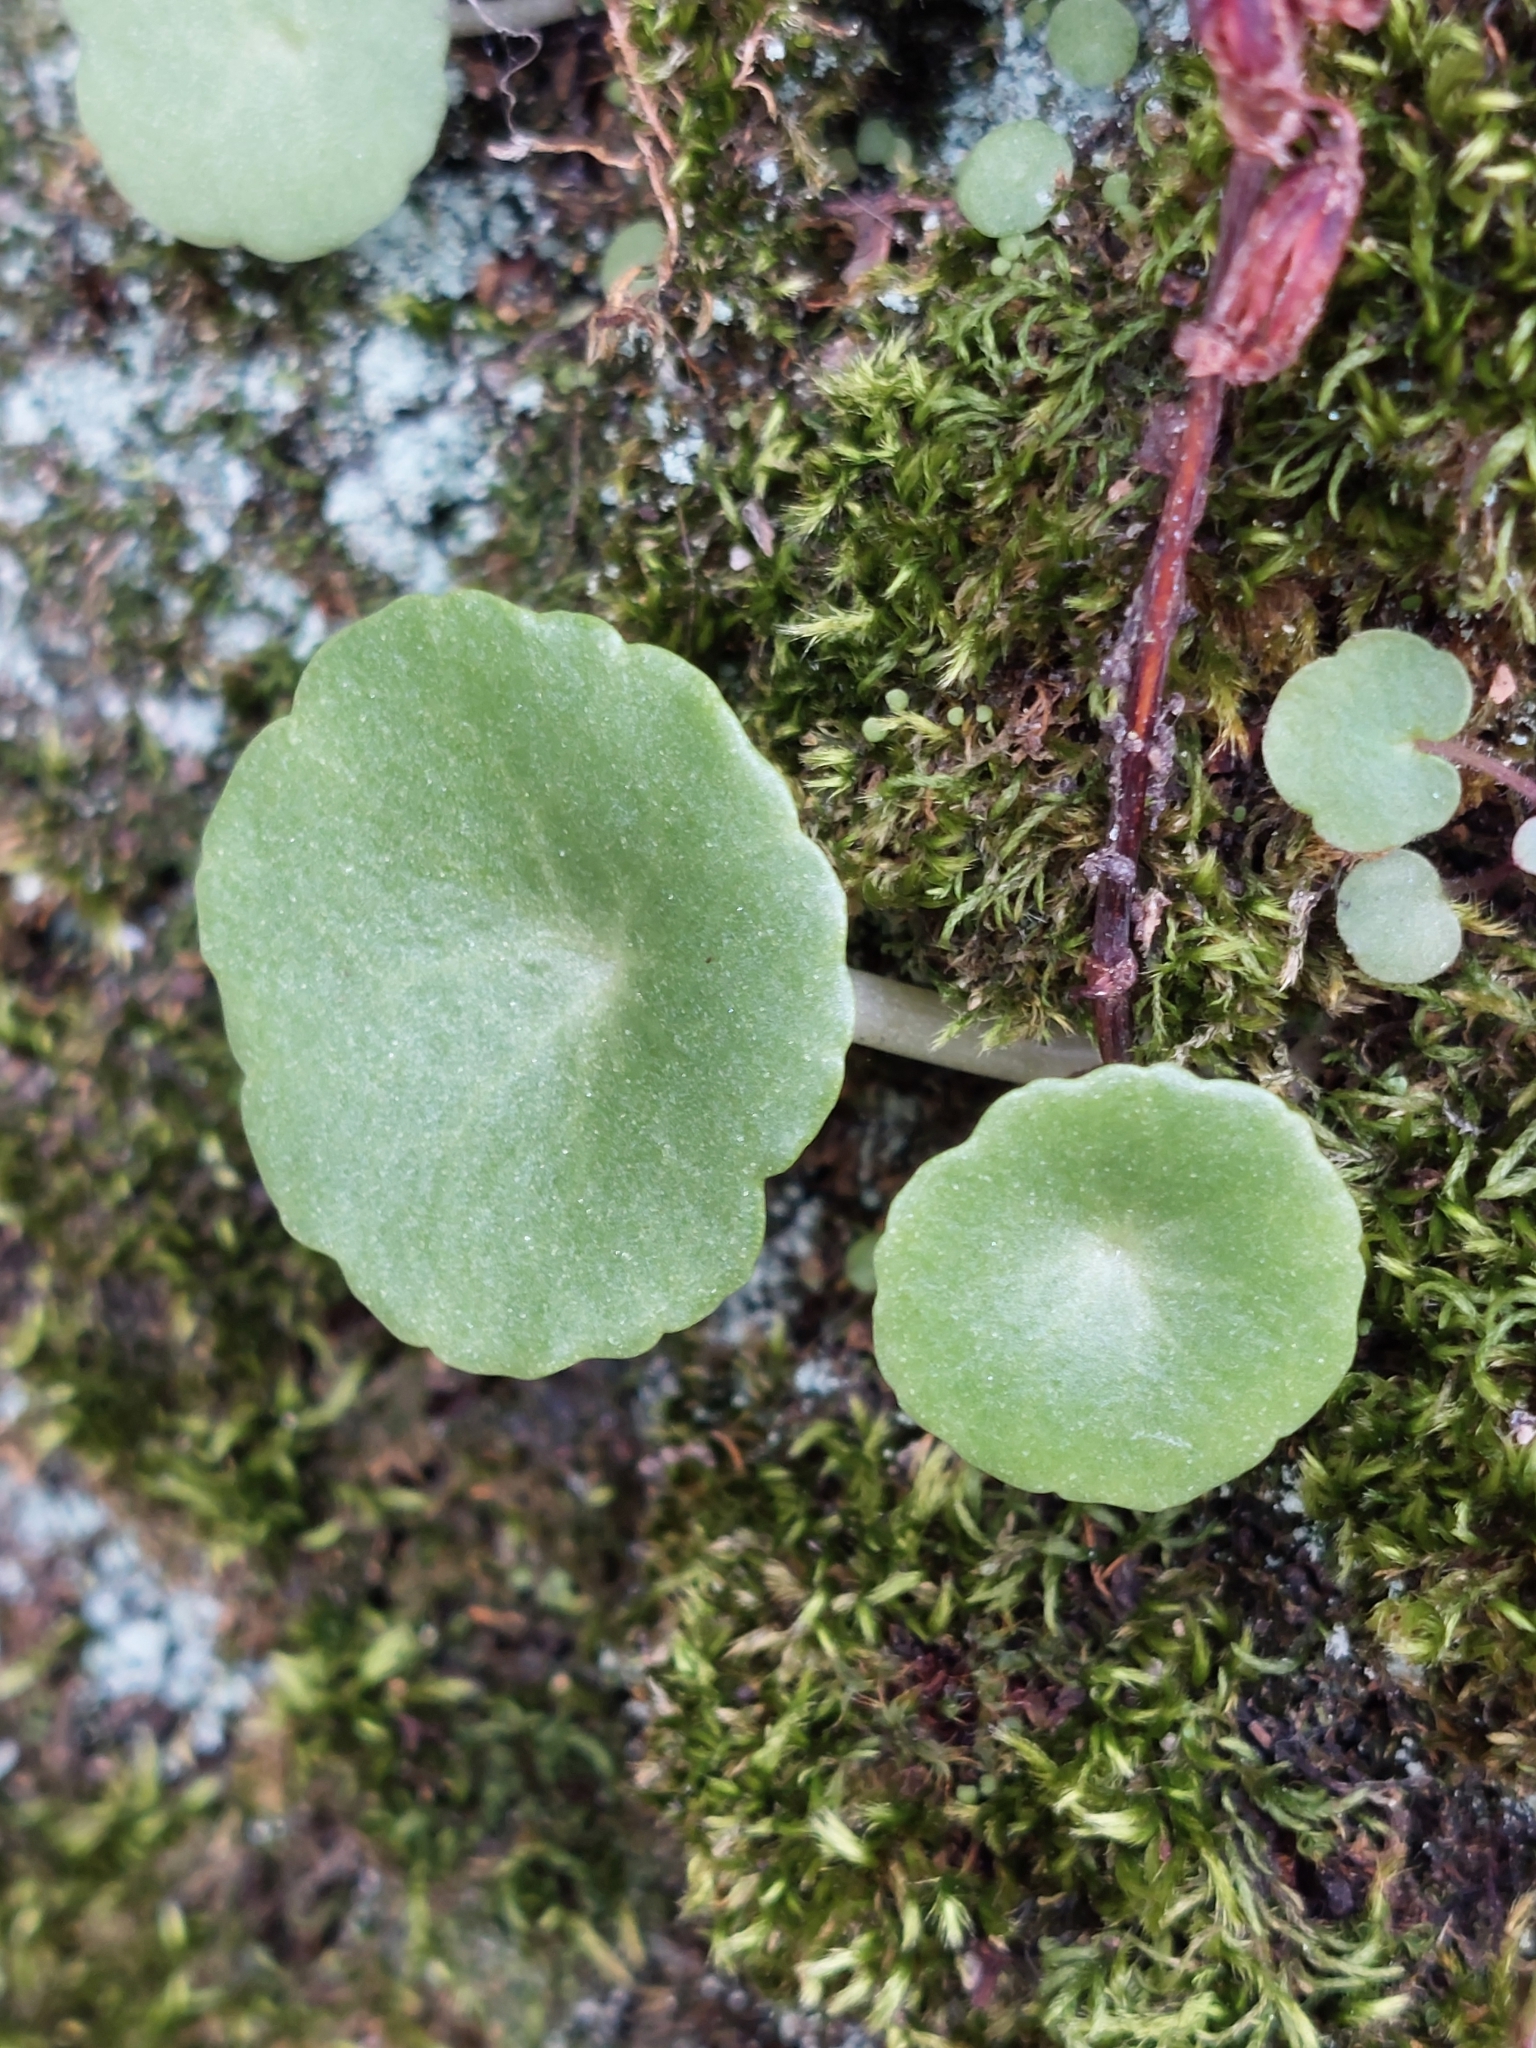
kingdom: Plantae
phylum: Tracheophyta
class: Magnoliopsida
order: Saxifragales
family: Crassulaceae
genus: Umbilicus
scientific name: Umbilicus rupestris
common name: Navelwort
